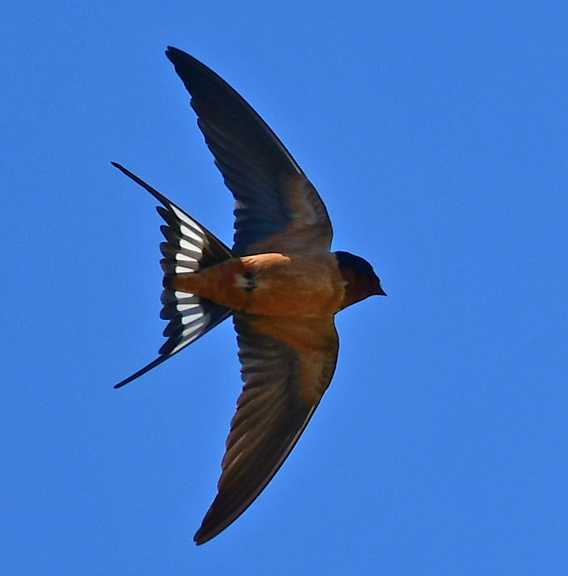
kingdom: Animalia
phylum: Chordata
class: Aves
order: Passeriformes
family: Hirundinidae
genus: Hirundo
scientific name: Hirundo rustica
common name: Barn swallow
